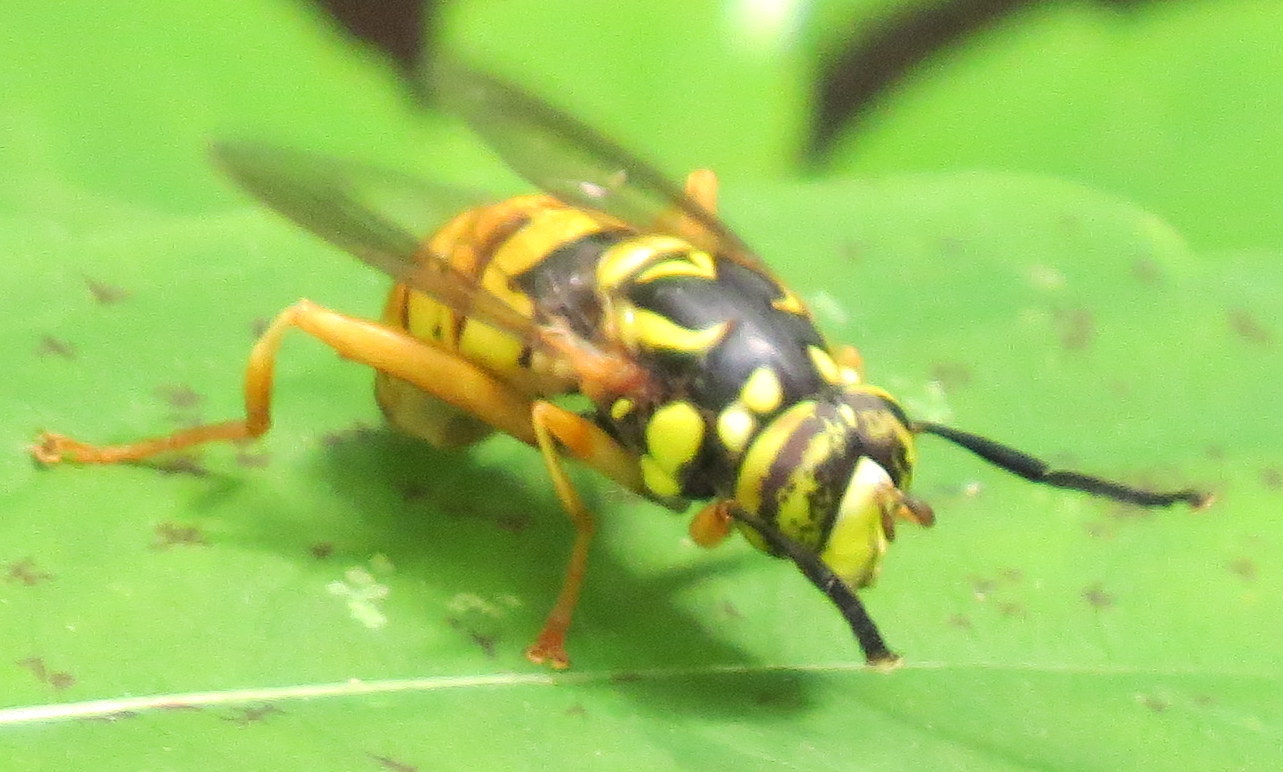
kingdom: Animalia
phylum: Arthropoda
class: Insecta
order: Diptera
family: Syrphidae
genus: Spilomyia
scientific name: Spilomyia alcimus
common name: Broad-banded hornet fly
